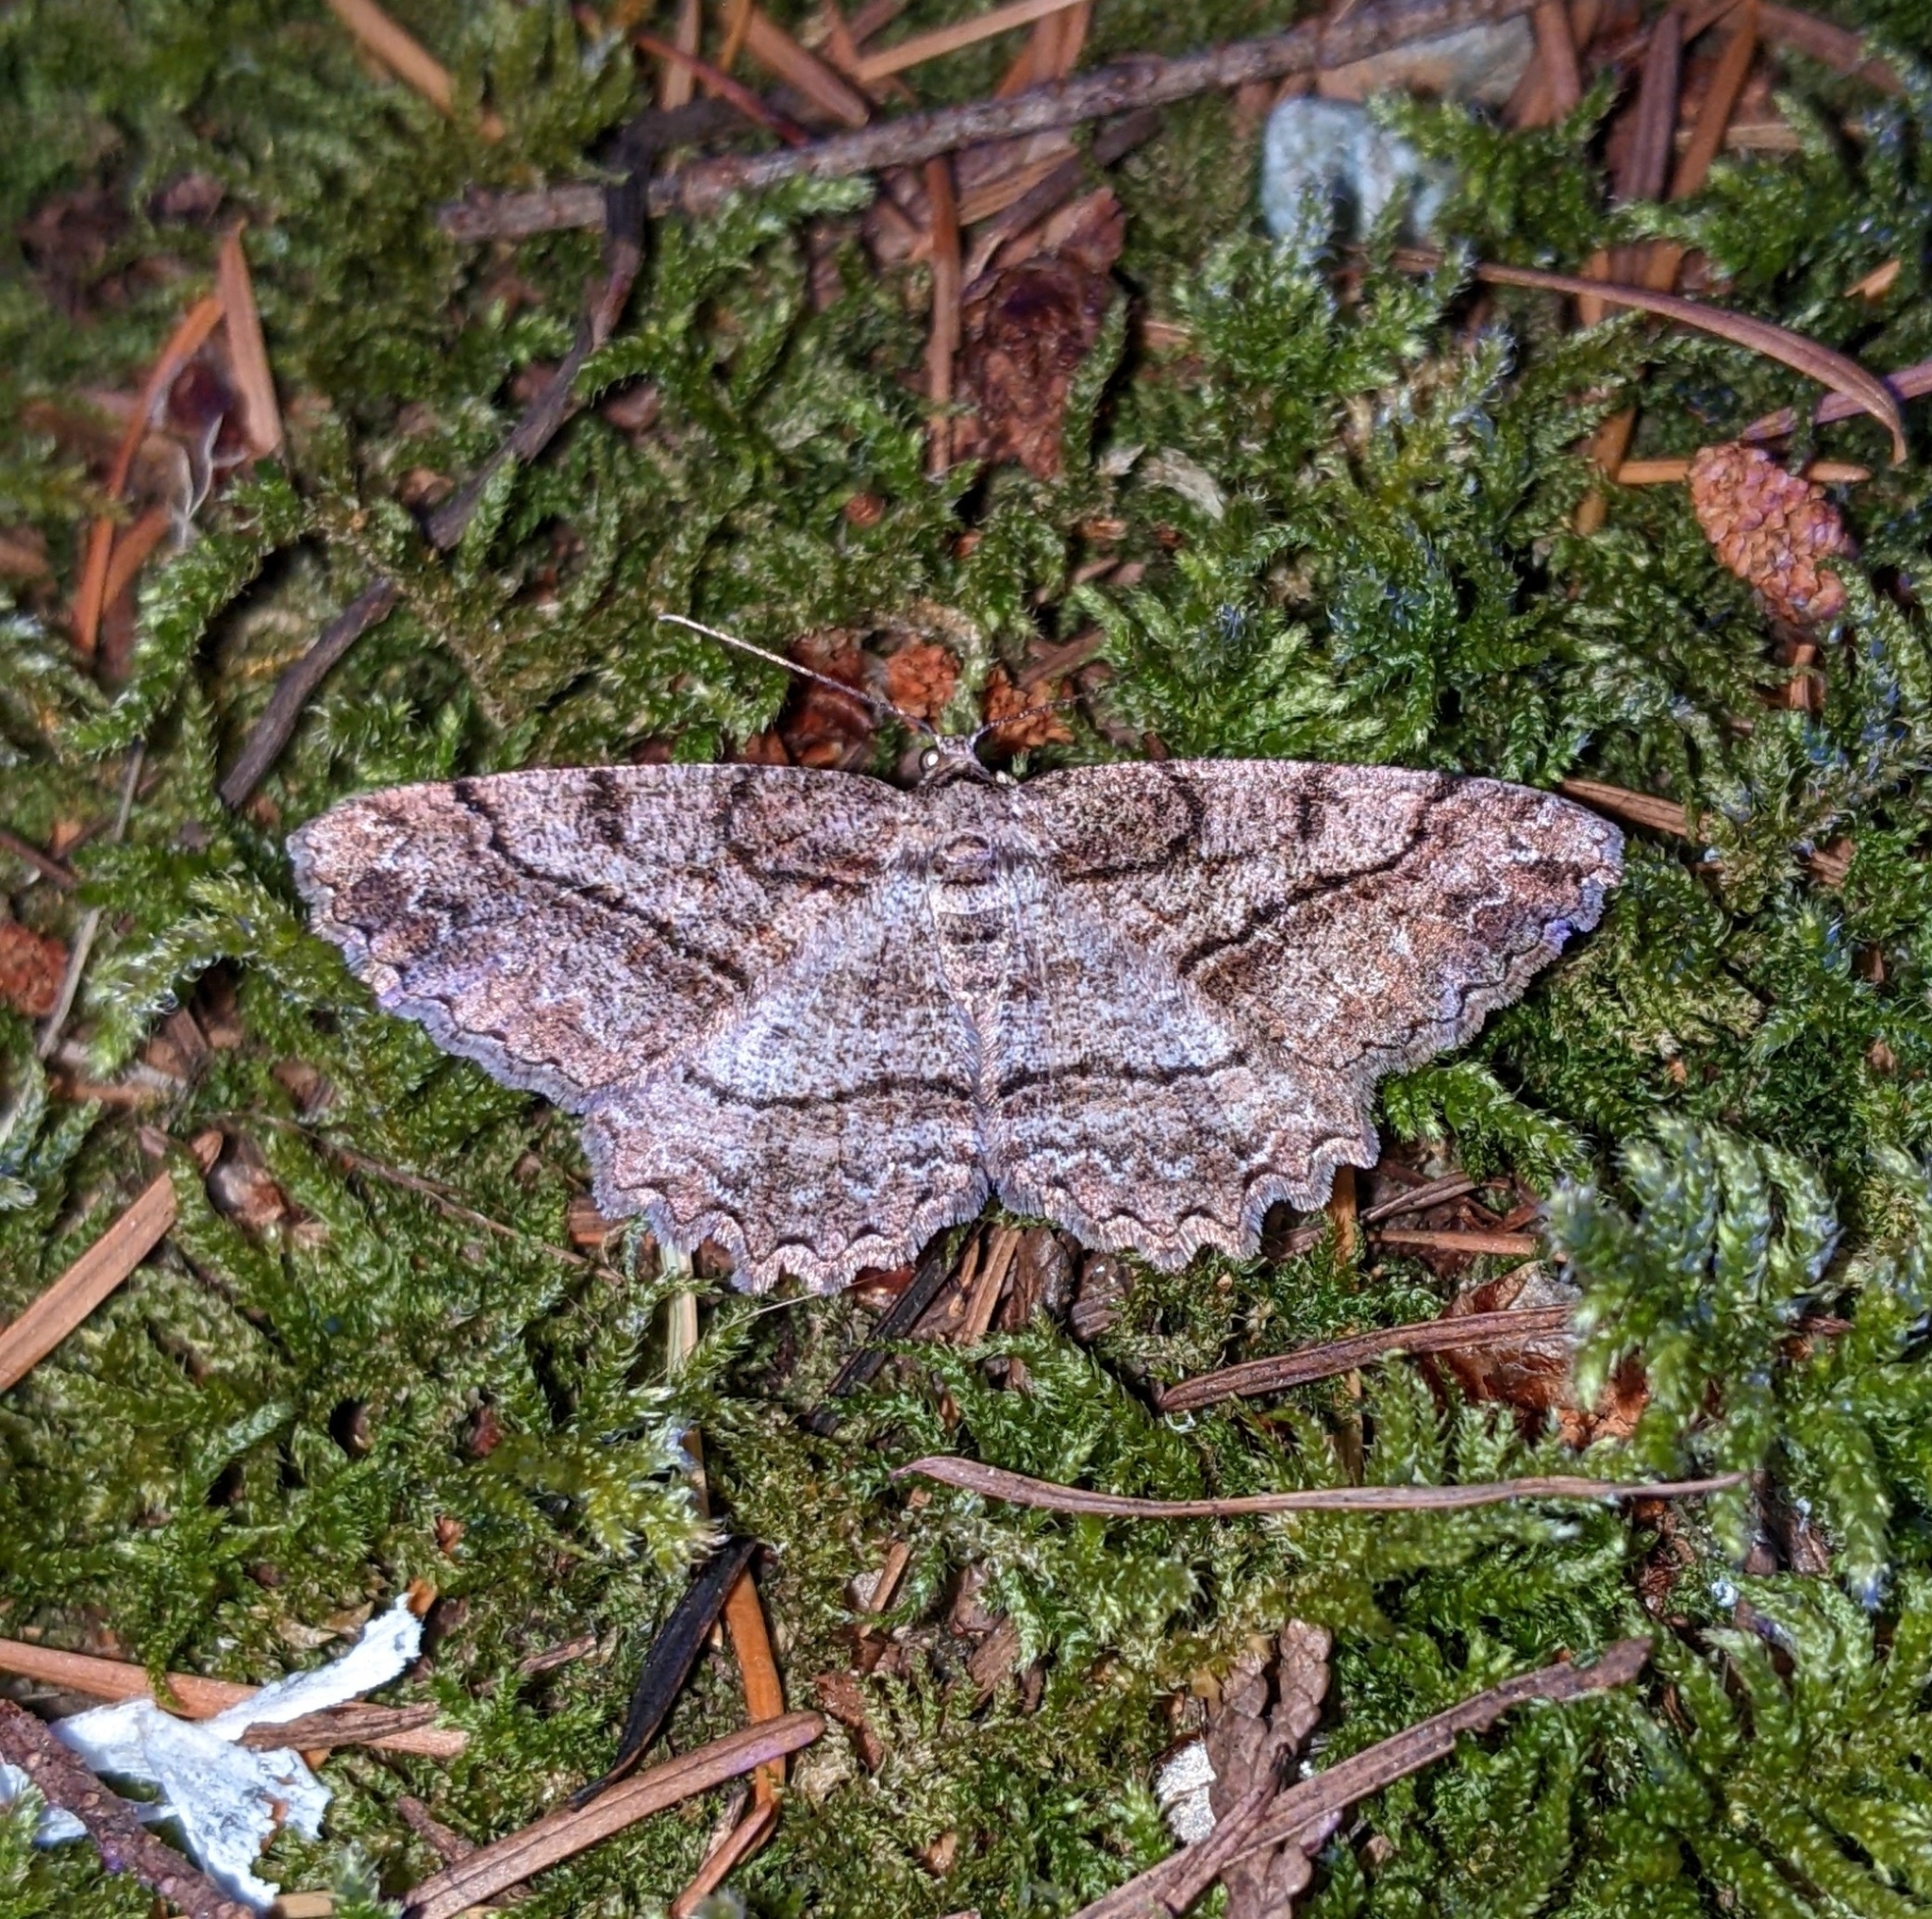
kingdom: Animalia
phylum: Arthropoda
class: Insecta
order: Lepidoptera
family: Geometridae
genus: Neoalcis
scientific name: Neoalcis californiaria
